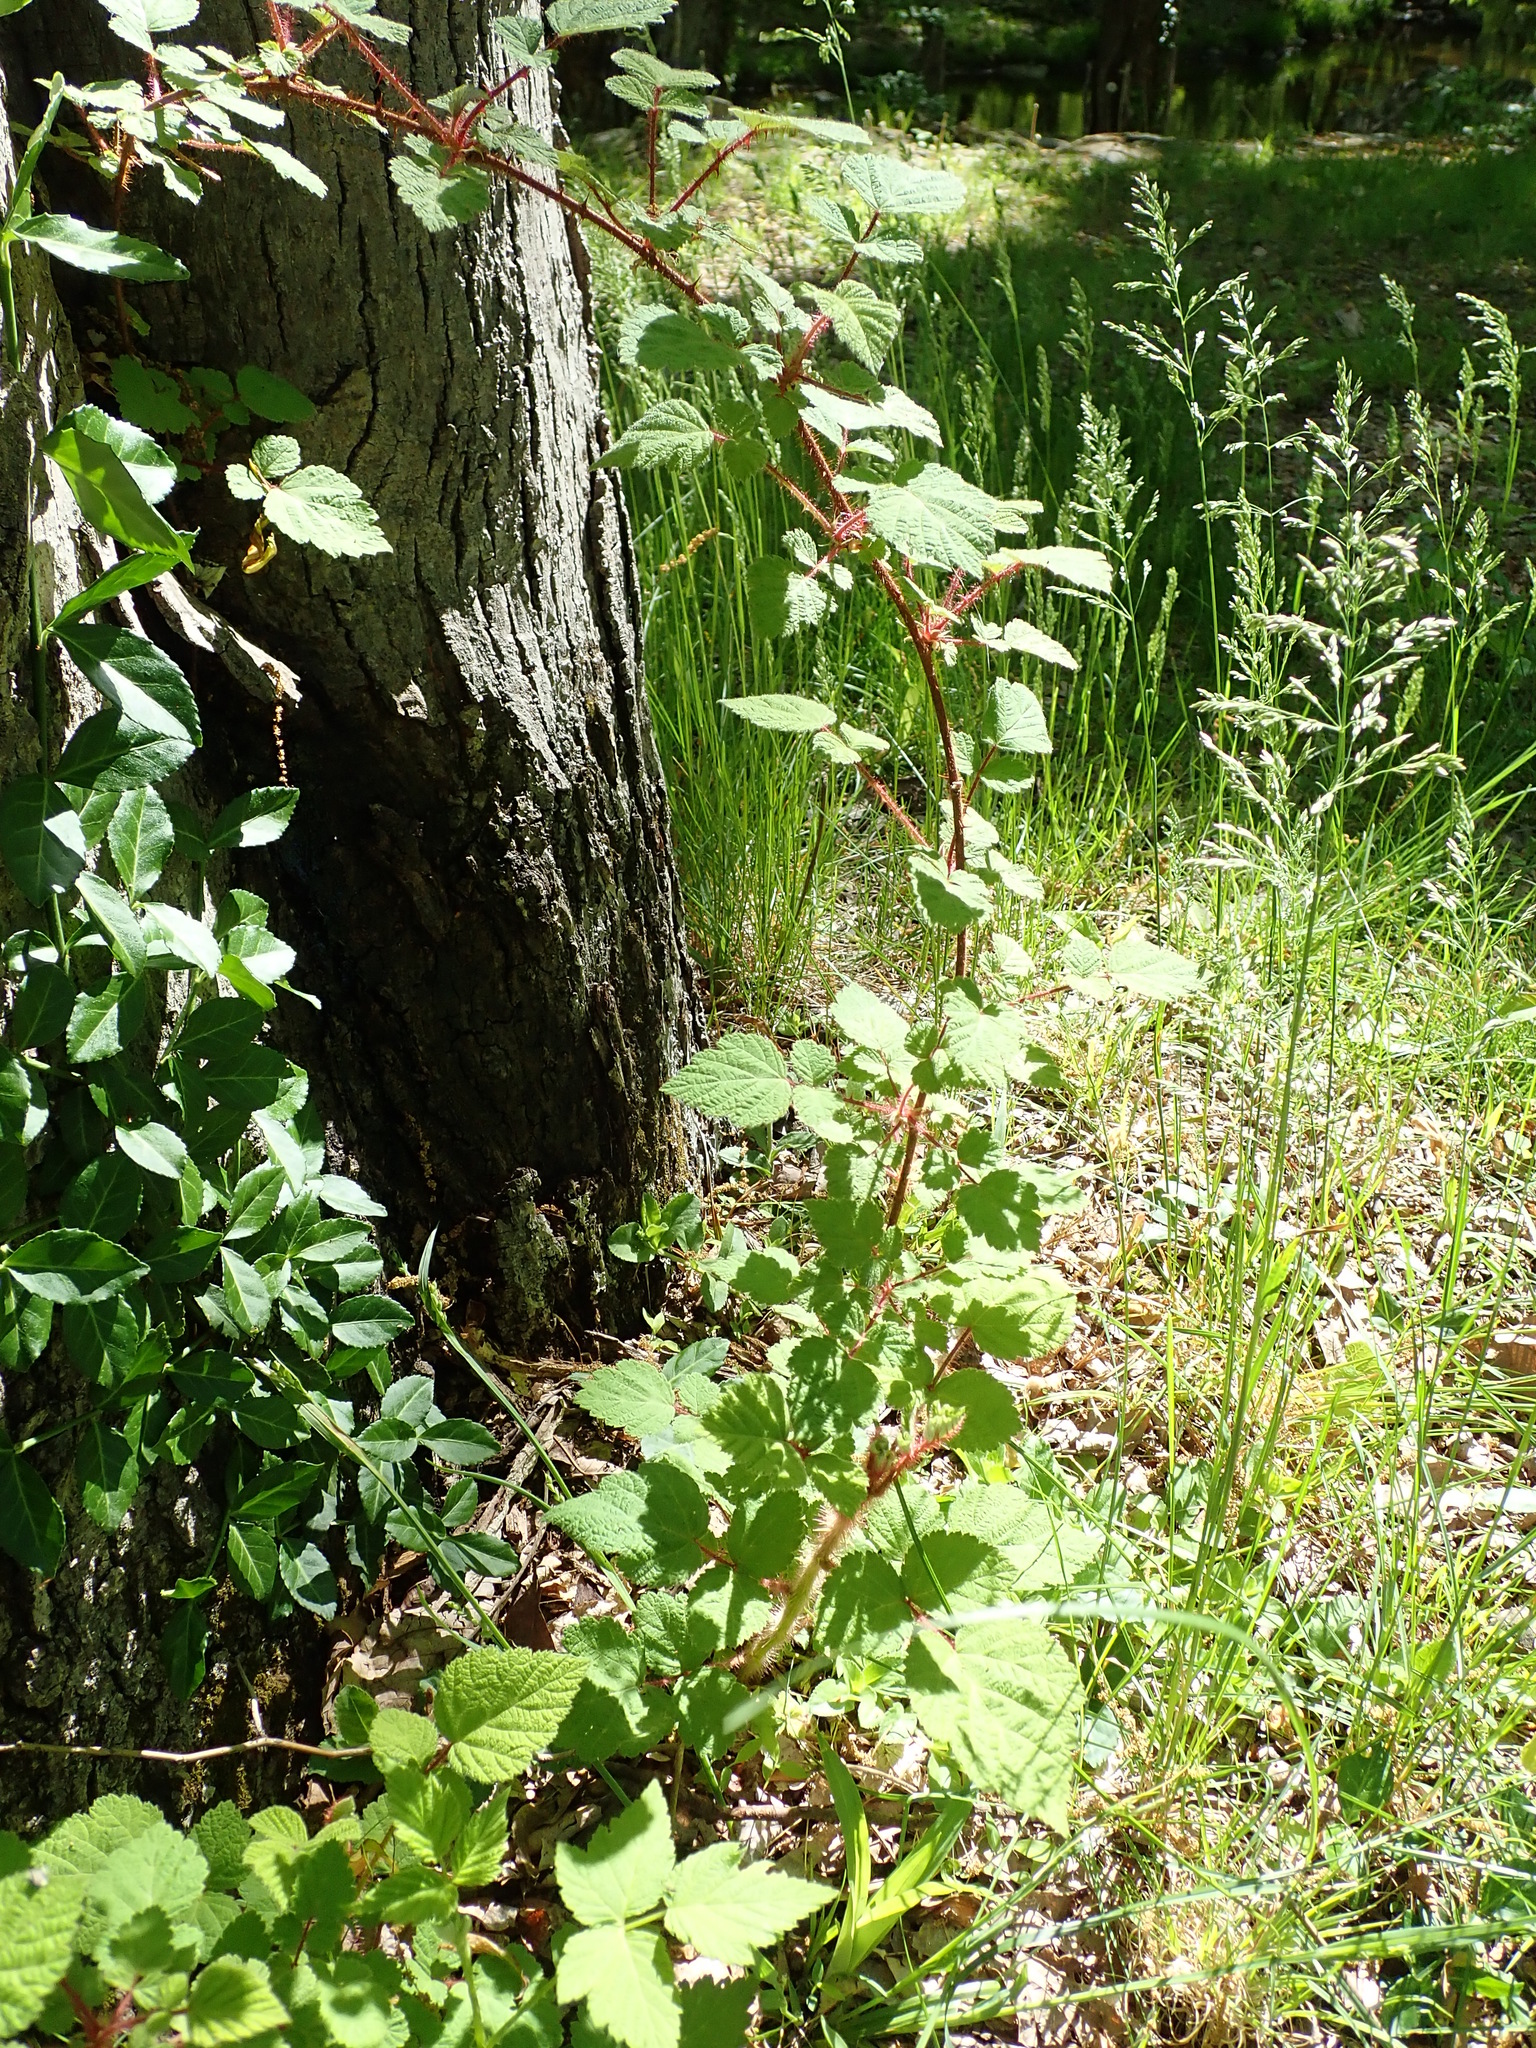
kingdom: Plantae
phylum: Tracheophyta
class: Magnoliopsida
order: Rosales
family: Rosaceae
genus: Rubus
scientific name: Rubus phoenicolasius
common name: Japanese wineberry
